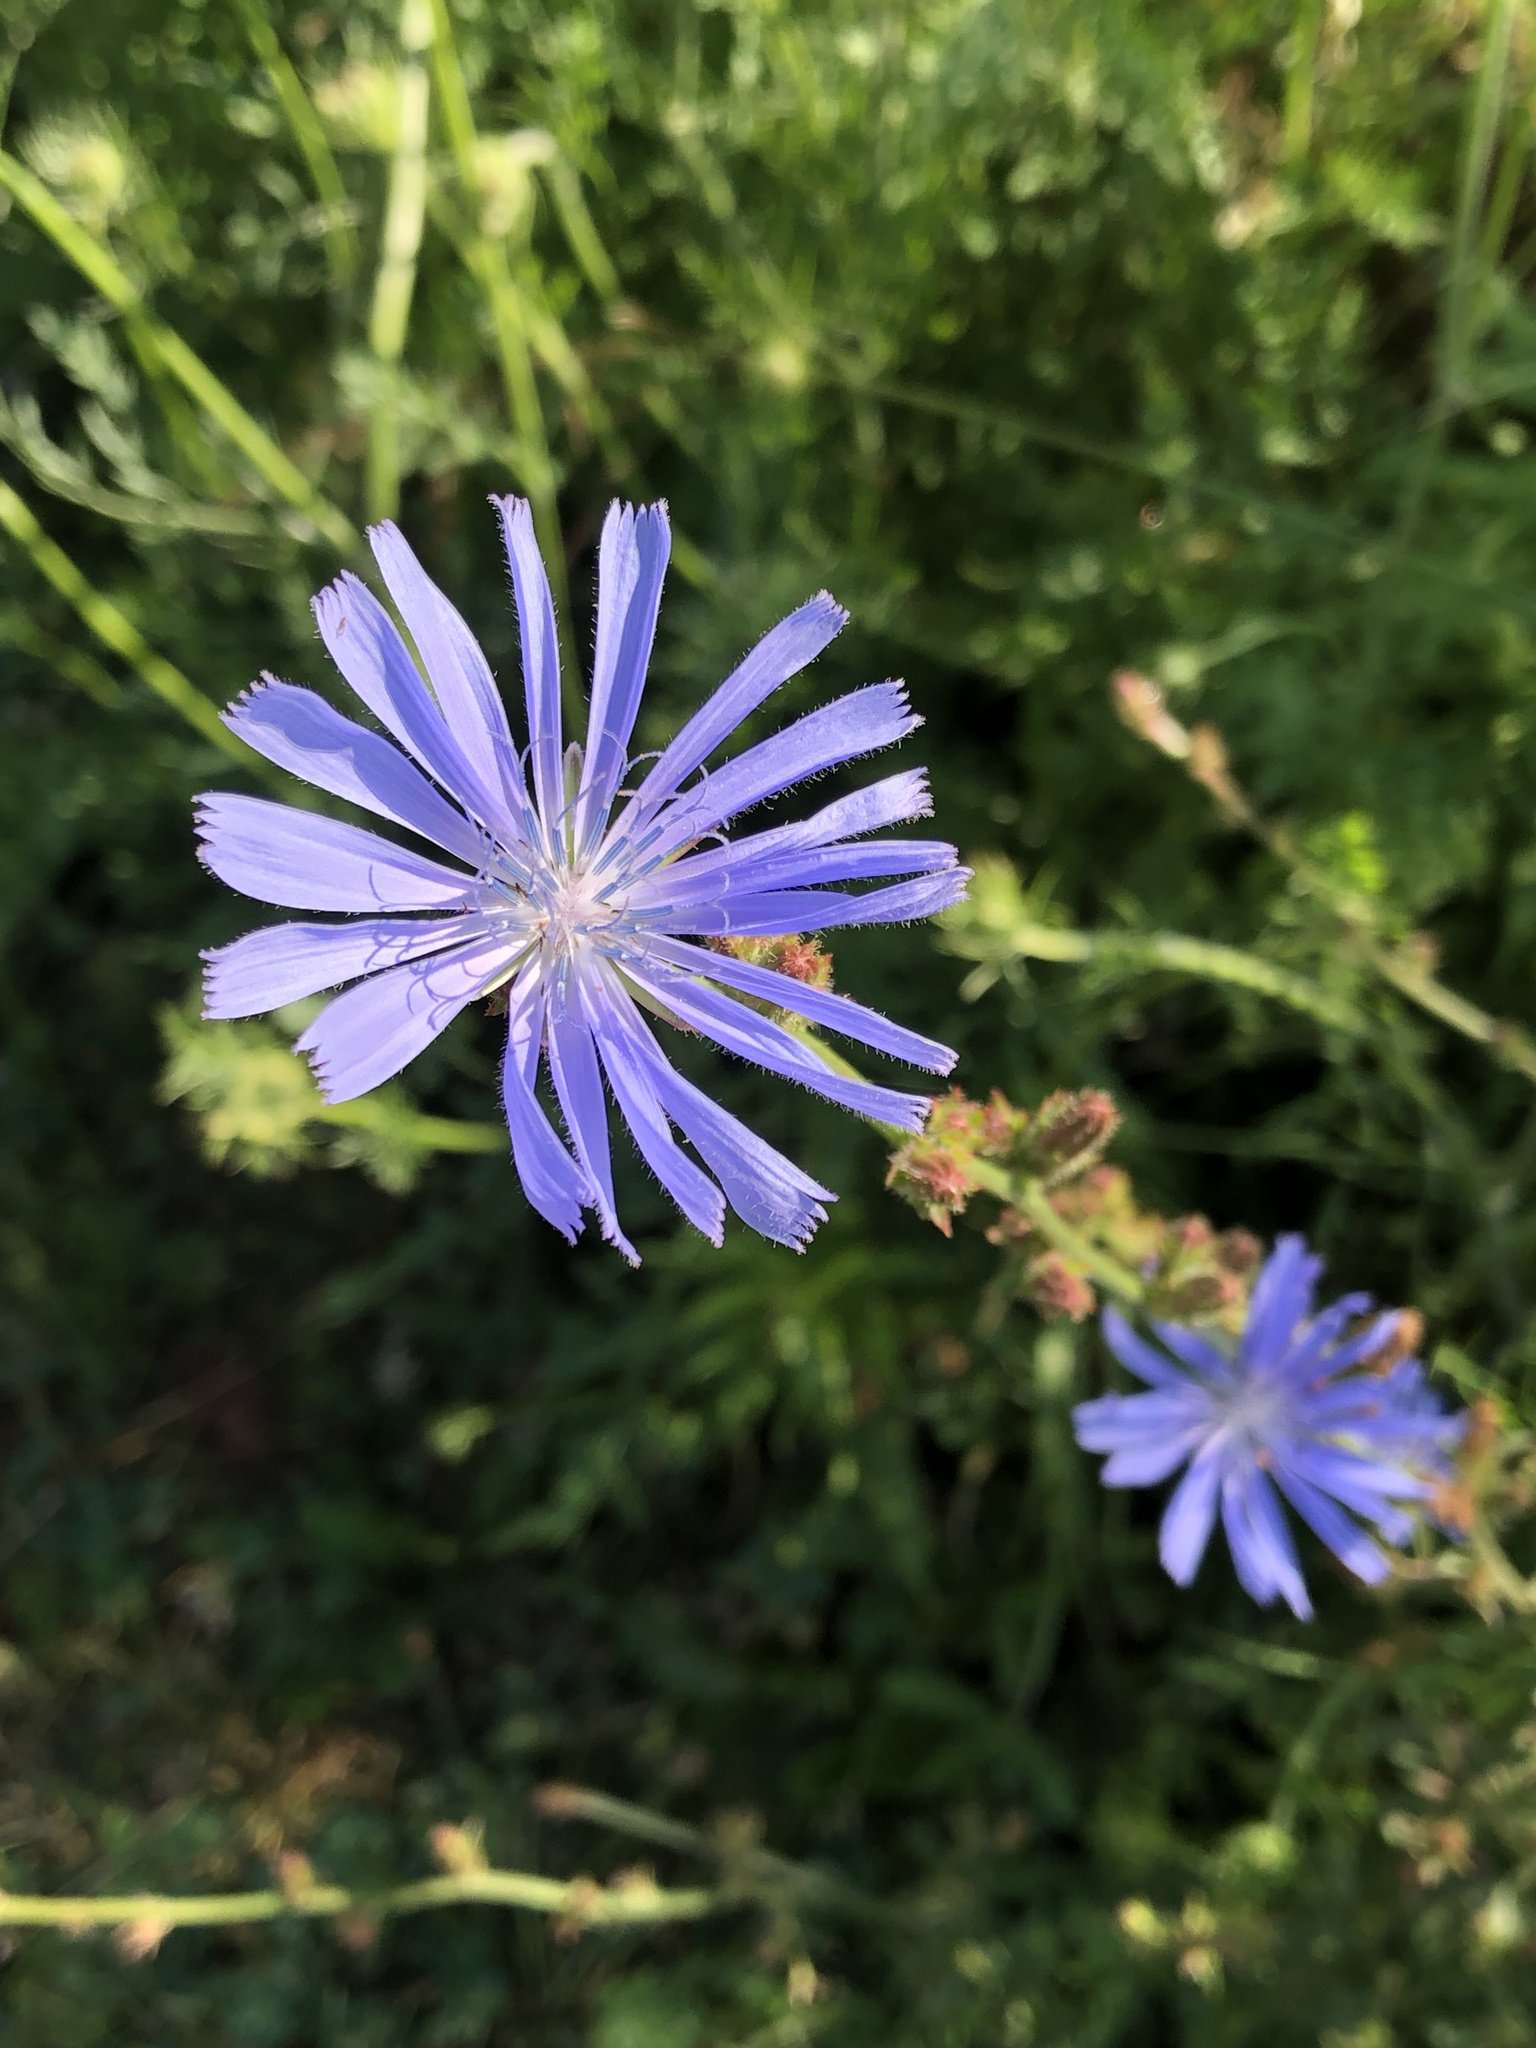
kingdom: Plantae
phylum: Tracheophyta
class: Magnoliopsida
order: Asterales
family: Asteraceae
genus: Cichorium
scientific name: Cichorium intybus
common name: Chicory
